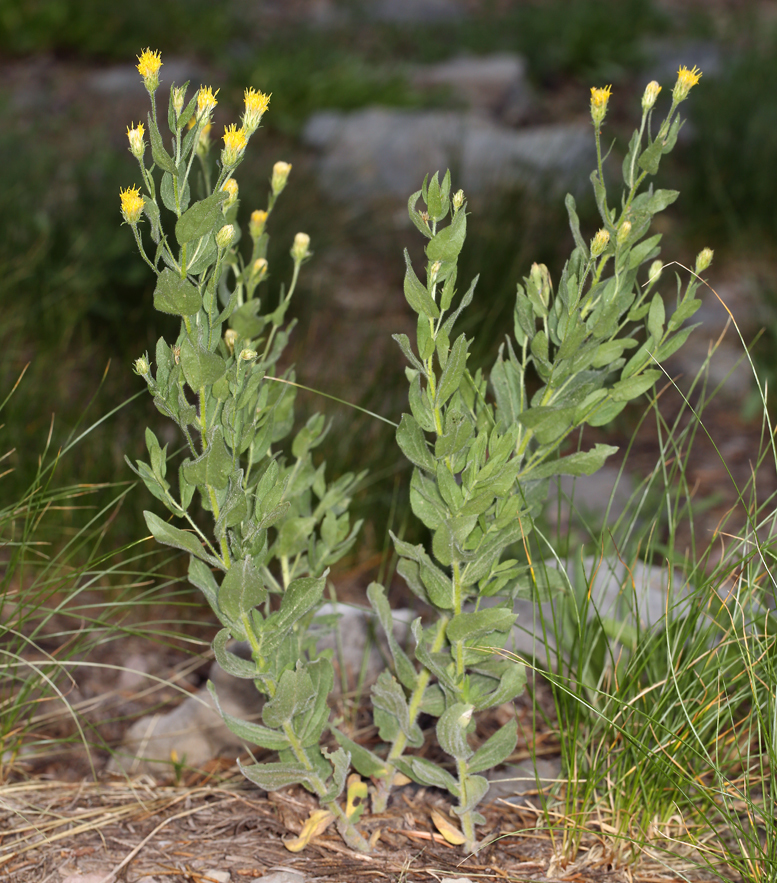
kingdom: Plantae
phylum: Tracheophyta
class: Magnoliopsida
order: Asterales
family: Asteraceae
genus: Eucephalus
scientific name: Eucephalus breweri
